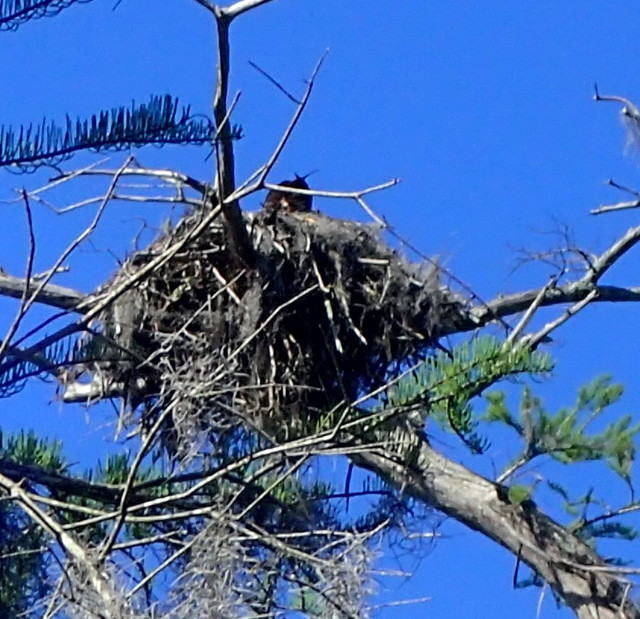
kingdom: Animalia
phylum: Chordata
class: Aves
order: Accipitriformes
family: Pandionidae
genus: Pandion
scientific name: Pandion haliaetus
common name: Osprey
